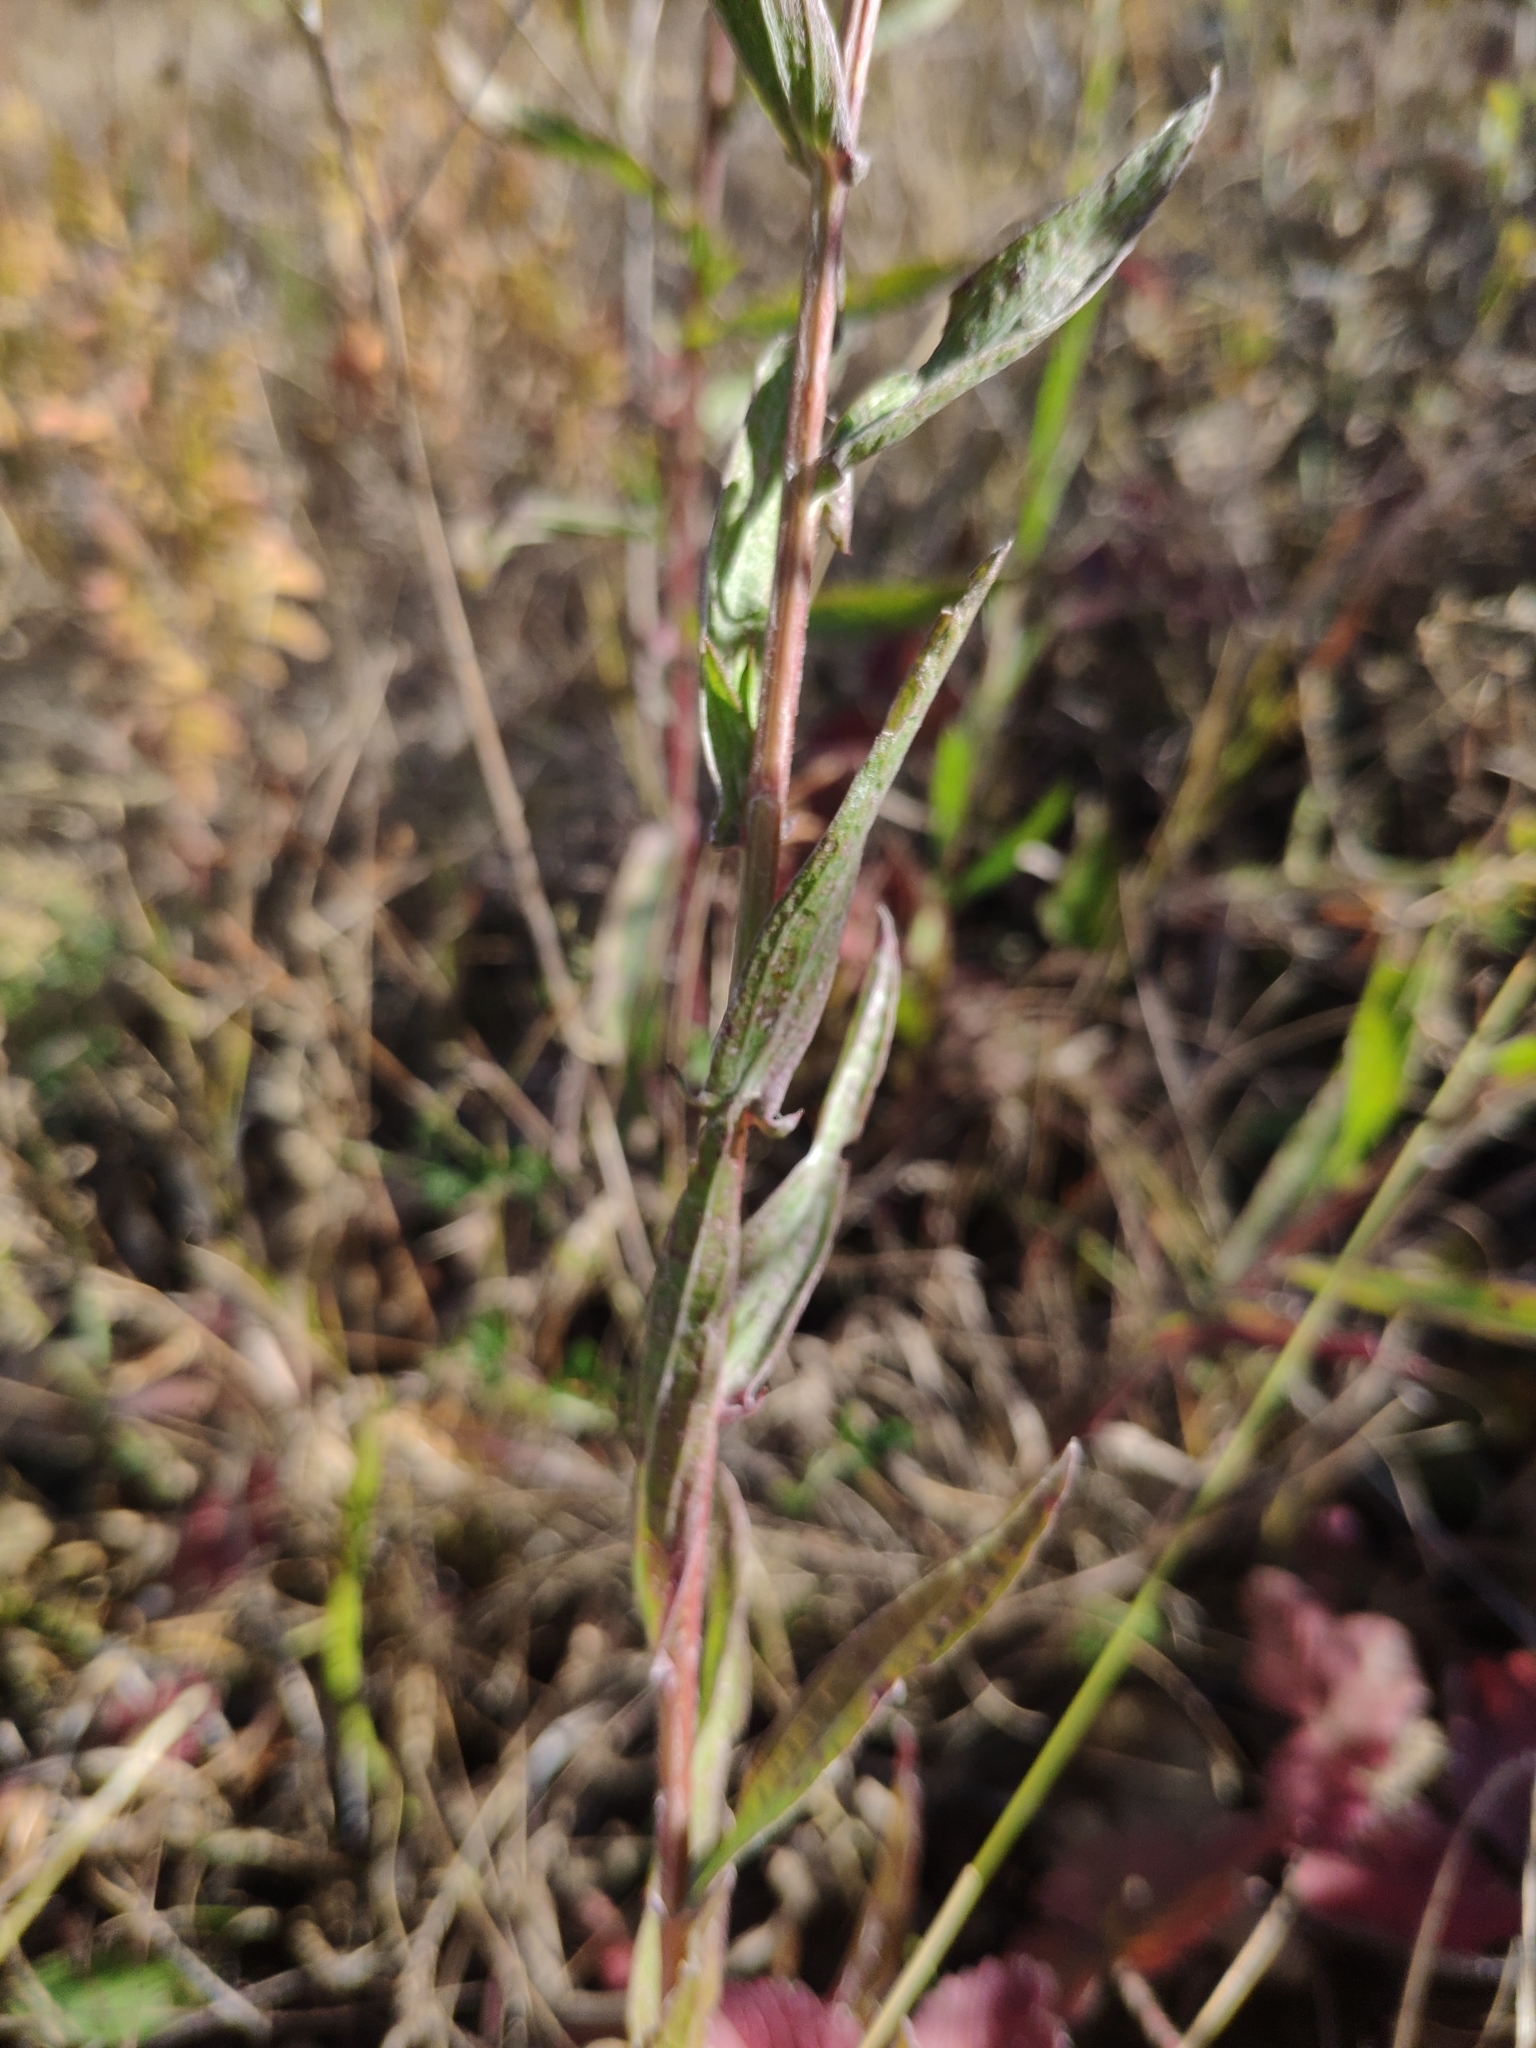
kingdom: Plantae
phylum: Tracheophyta
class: Magnoliopsida
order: Asterales
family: Asteraceae
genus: Centaurea
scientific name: Centaurea jacea
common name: Brown knapweed
